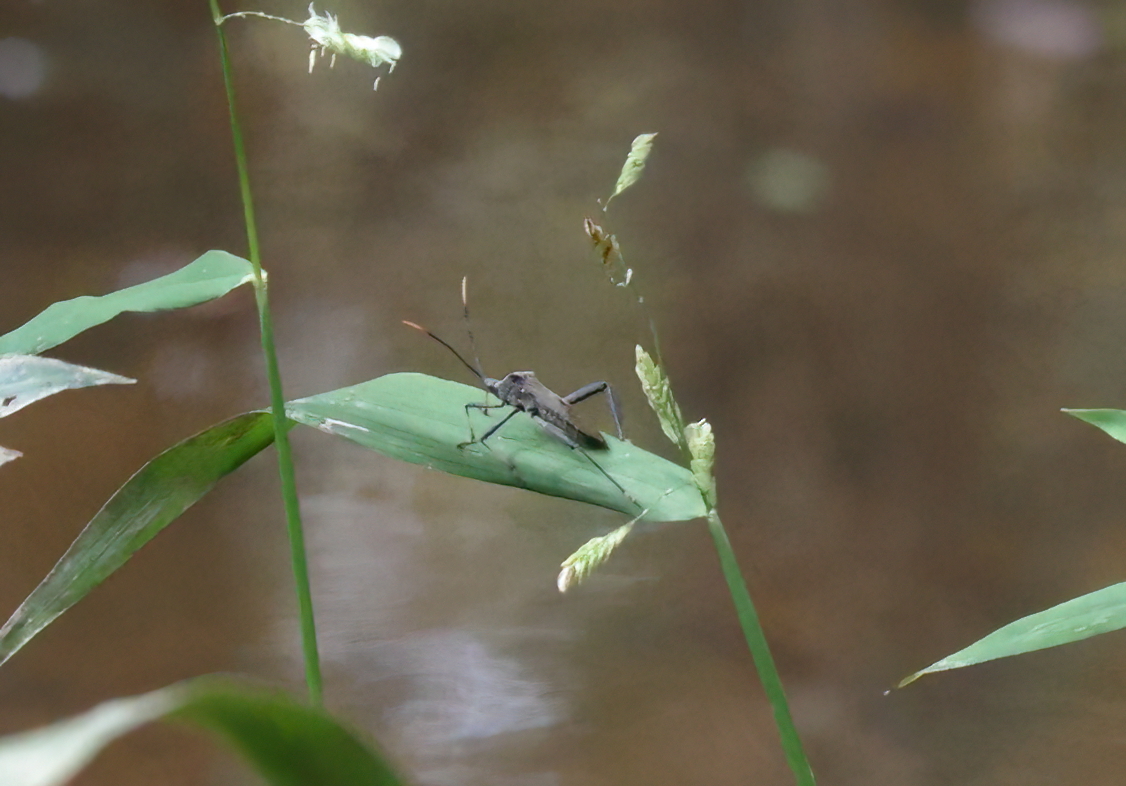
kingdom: Animalia
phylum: Arthropoda
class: Insecta
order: Hemiptera
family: Coreidae
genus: Acanthocephala
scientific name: Acanthocephala terminalis
